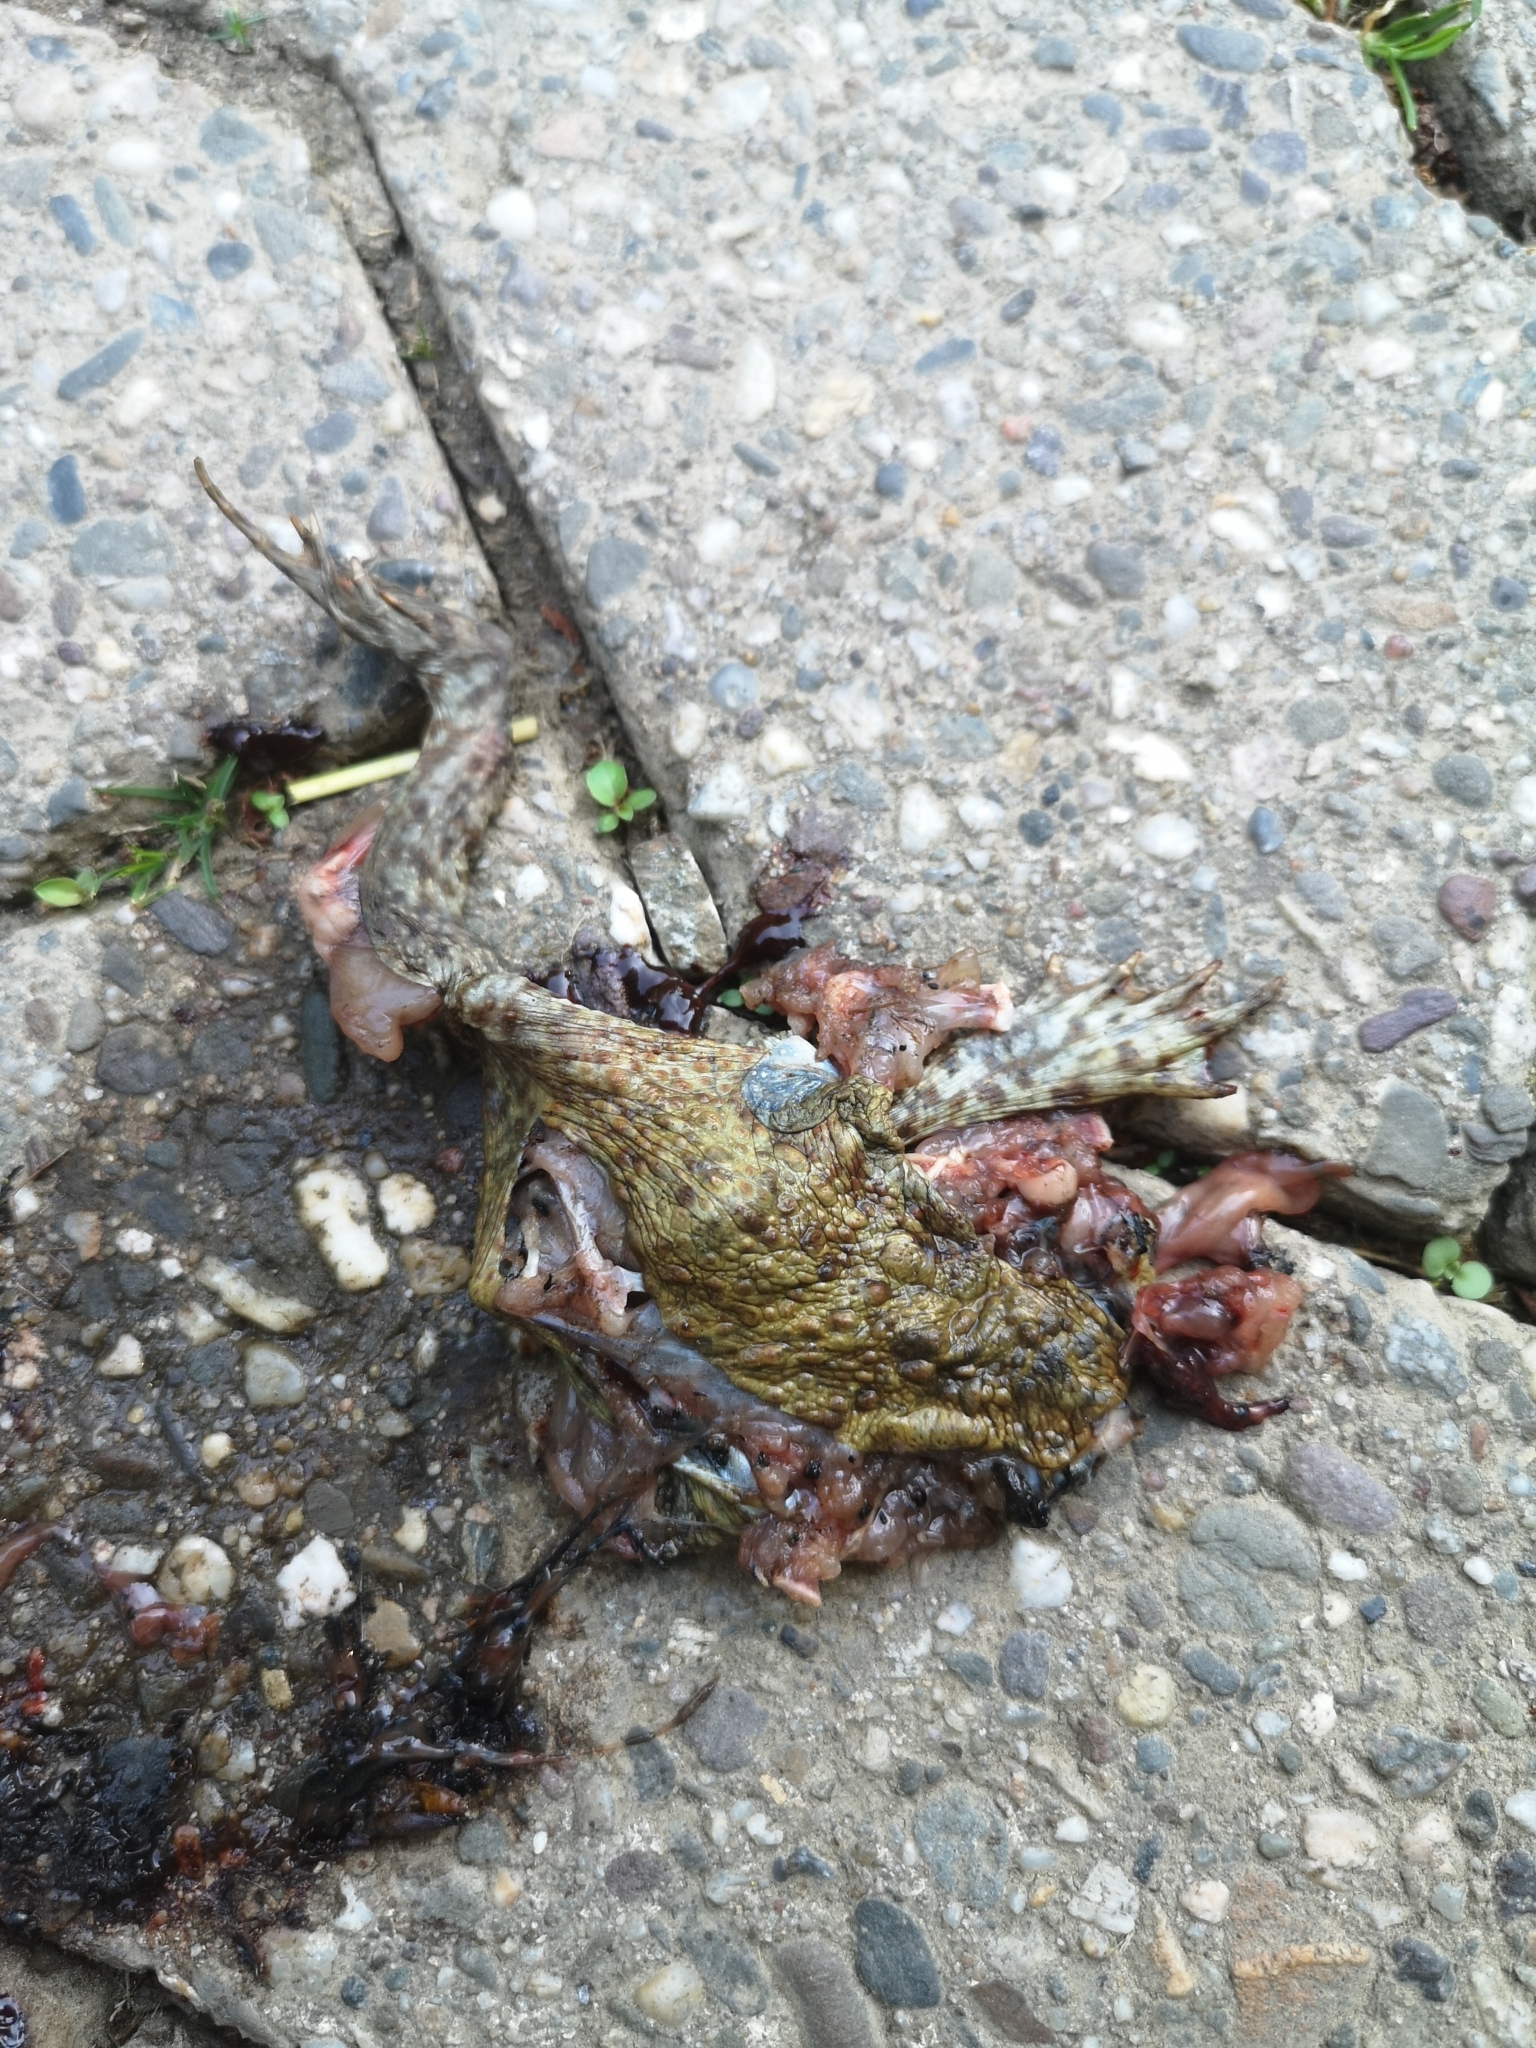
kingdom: Animalia
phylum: Chordata
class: Amphibia
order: Anura
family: Bufonidae
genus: Bufo
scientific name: Bufo bufo
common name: Common toad
